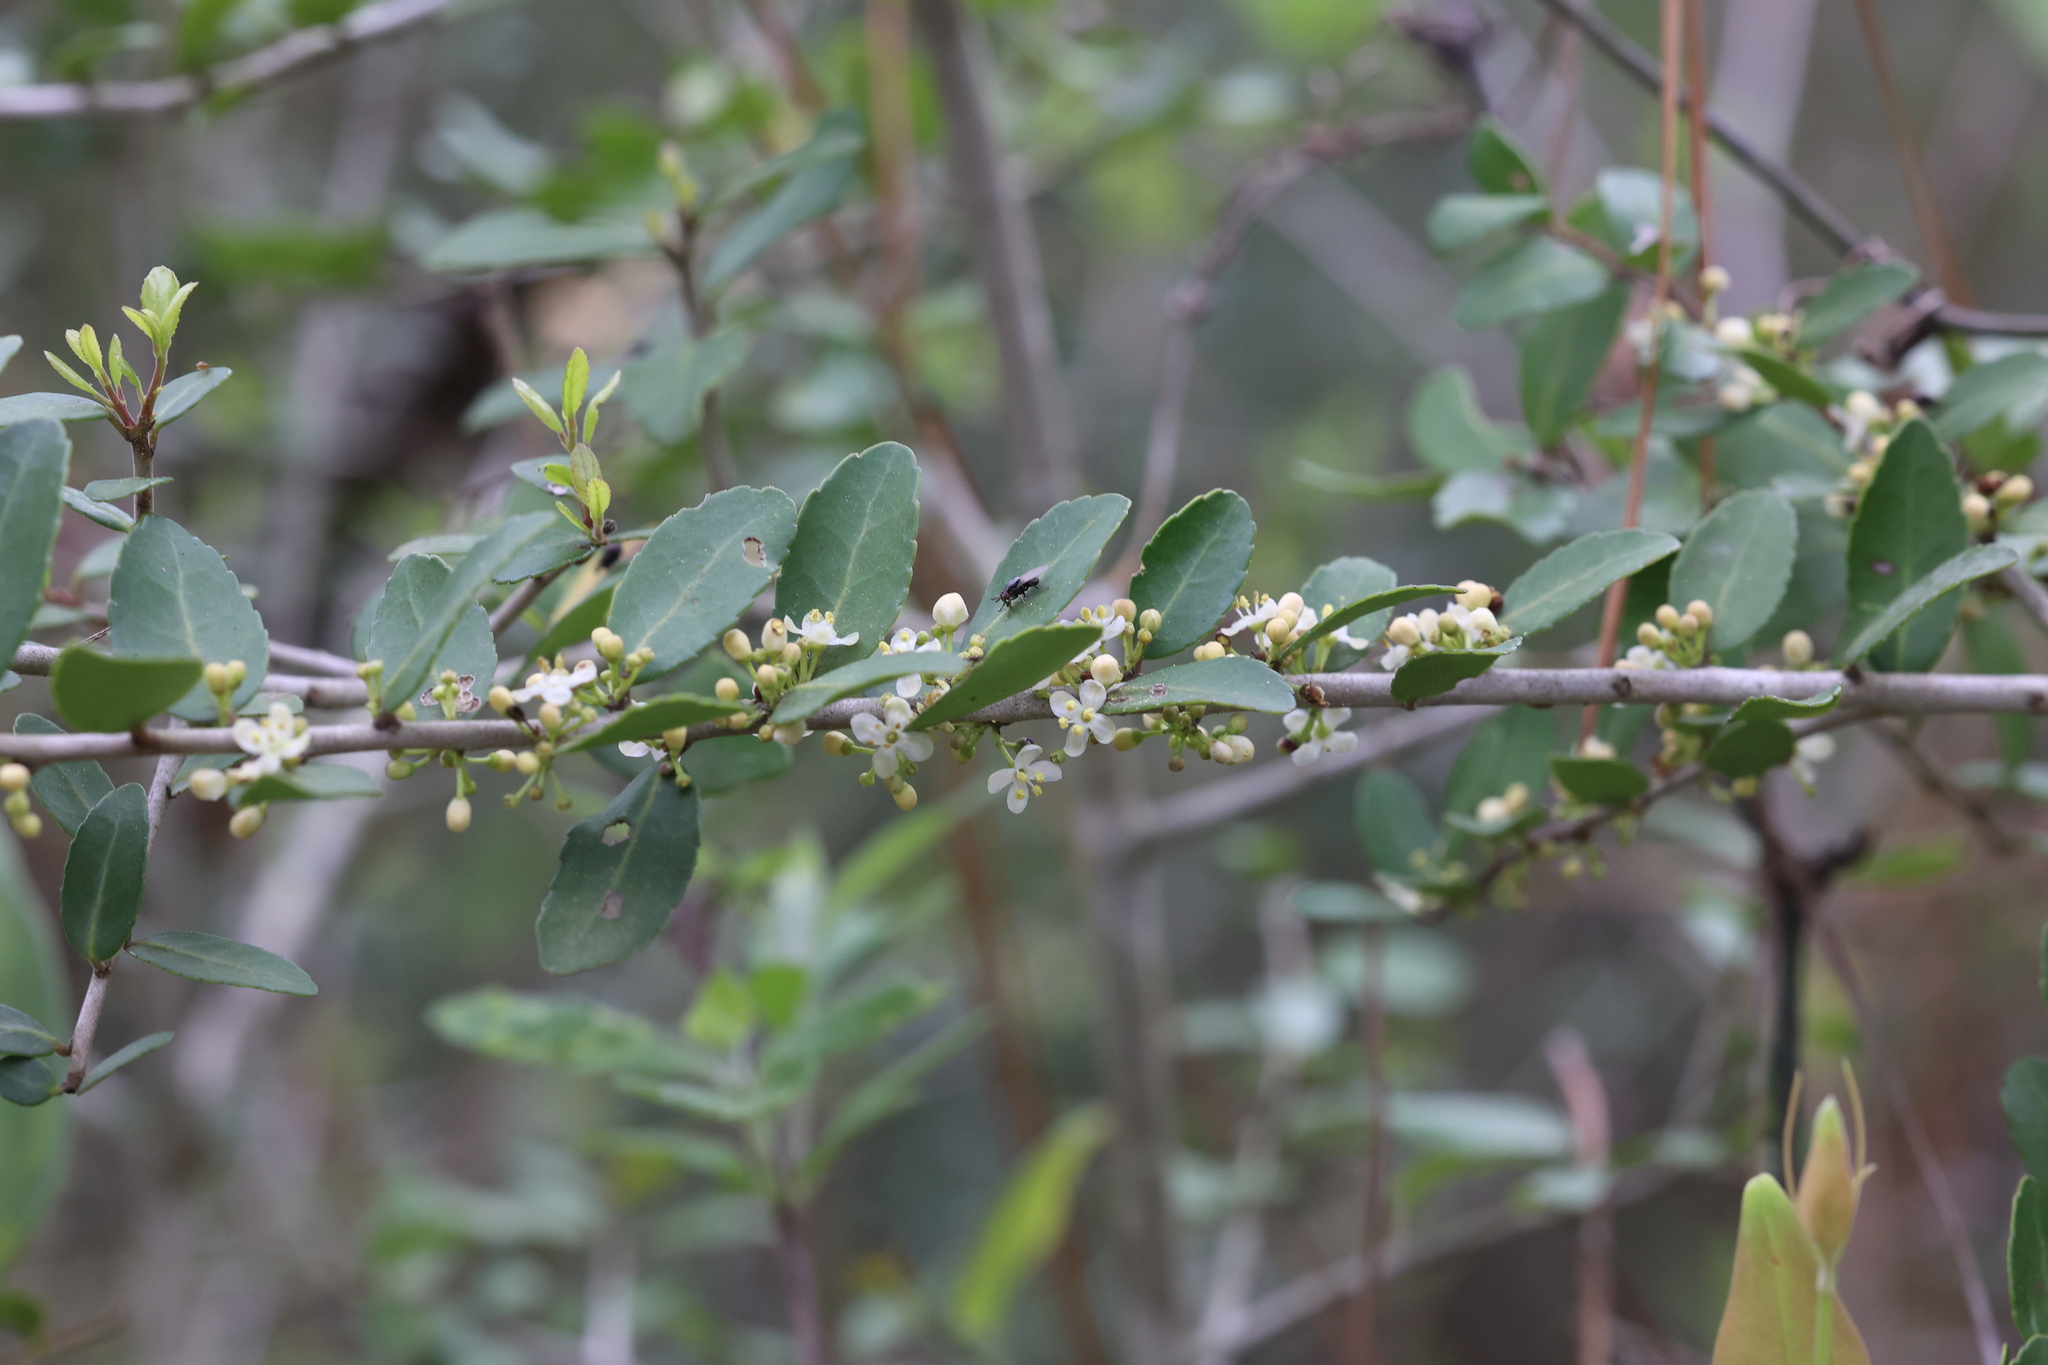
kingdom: Plantae
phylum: Tracheophyta
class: Magnoliopsida
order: Aquifoliales
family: Aquifoliaceae
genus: Ilex
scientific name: Ilex vomitoria
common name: Yaupon holly
